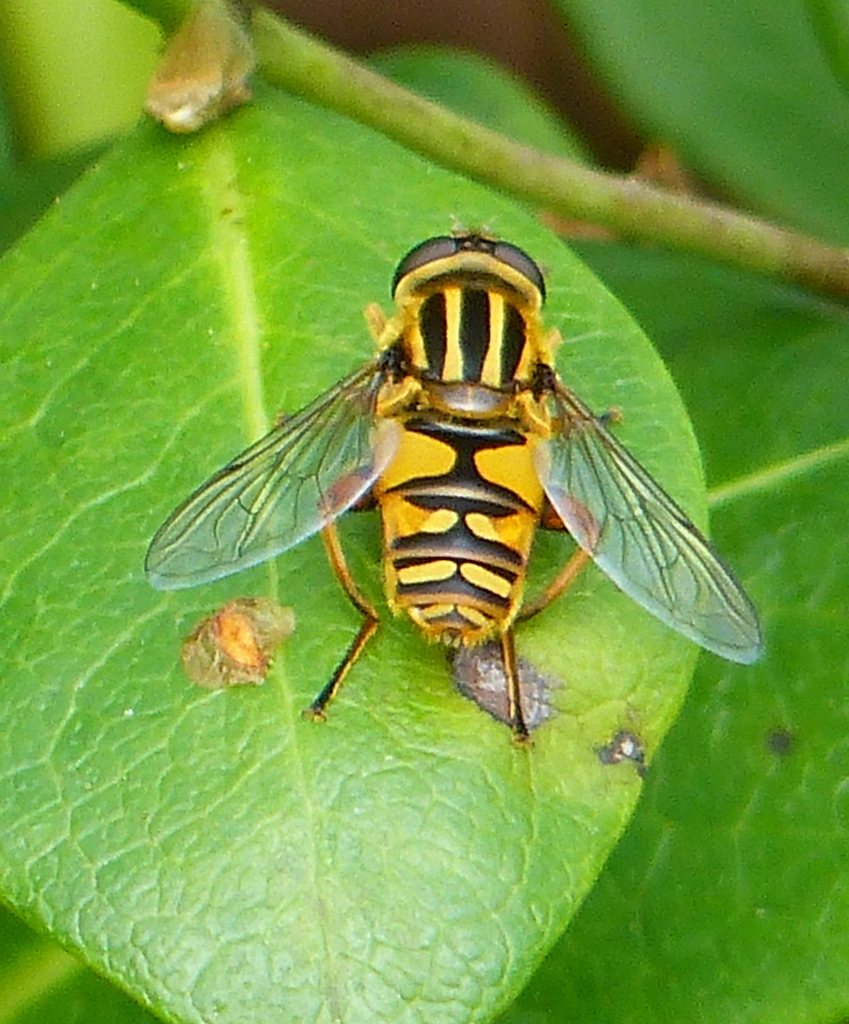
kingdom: Animalia
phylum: Arthropoda
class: Insecta
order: Diptera
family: Syrphidae
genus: Helophilus
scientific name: Helophilus pendulus
